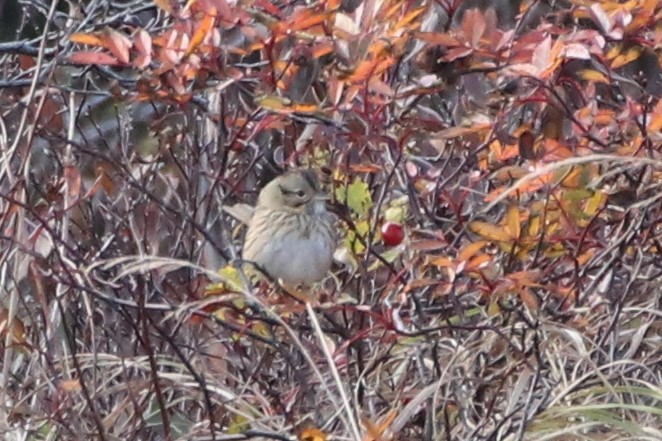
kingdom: Animalia
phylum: Chordata
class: Aves
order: Passeriformes
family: Passerellidae
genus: Melospiza
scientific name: Melospiza lincolnii
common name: Lincoln's sparrow
